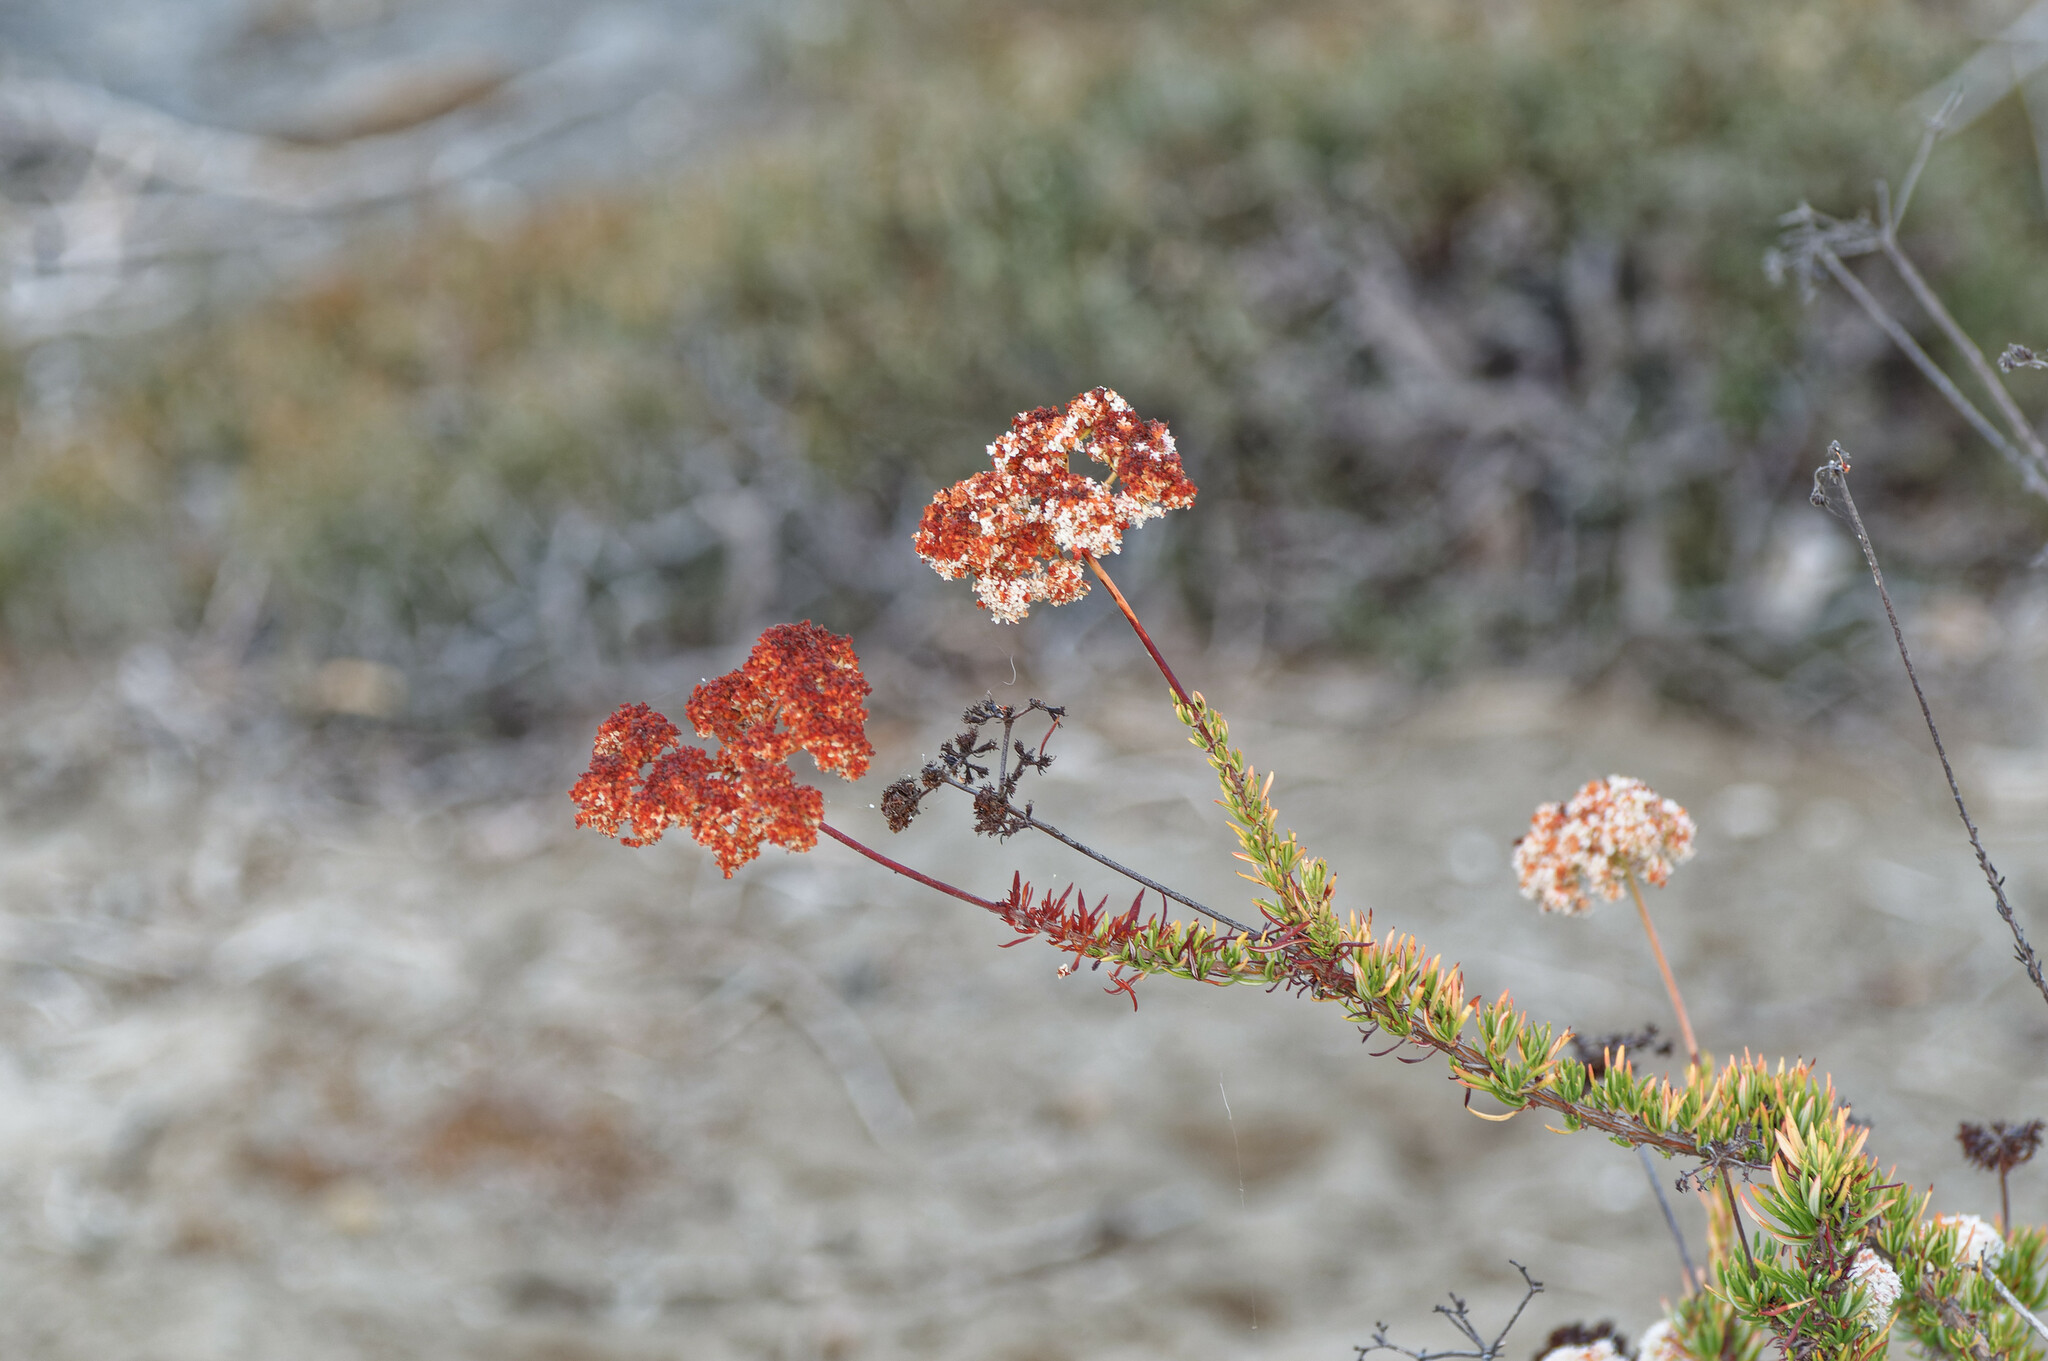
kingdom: Plantae
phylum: Tracheophyta
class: Magnoliopsida
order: Caryophyllales
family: Polygonaceae
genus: Eriogonum
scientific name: Eriogonum fasciculatum
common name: California wild buckwheat
